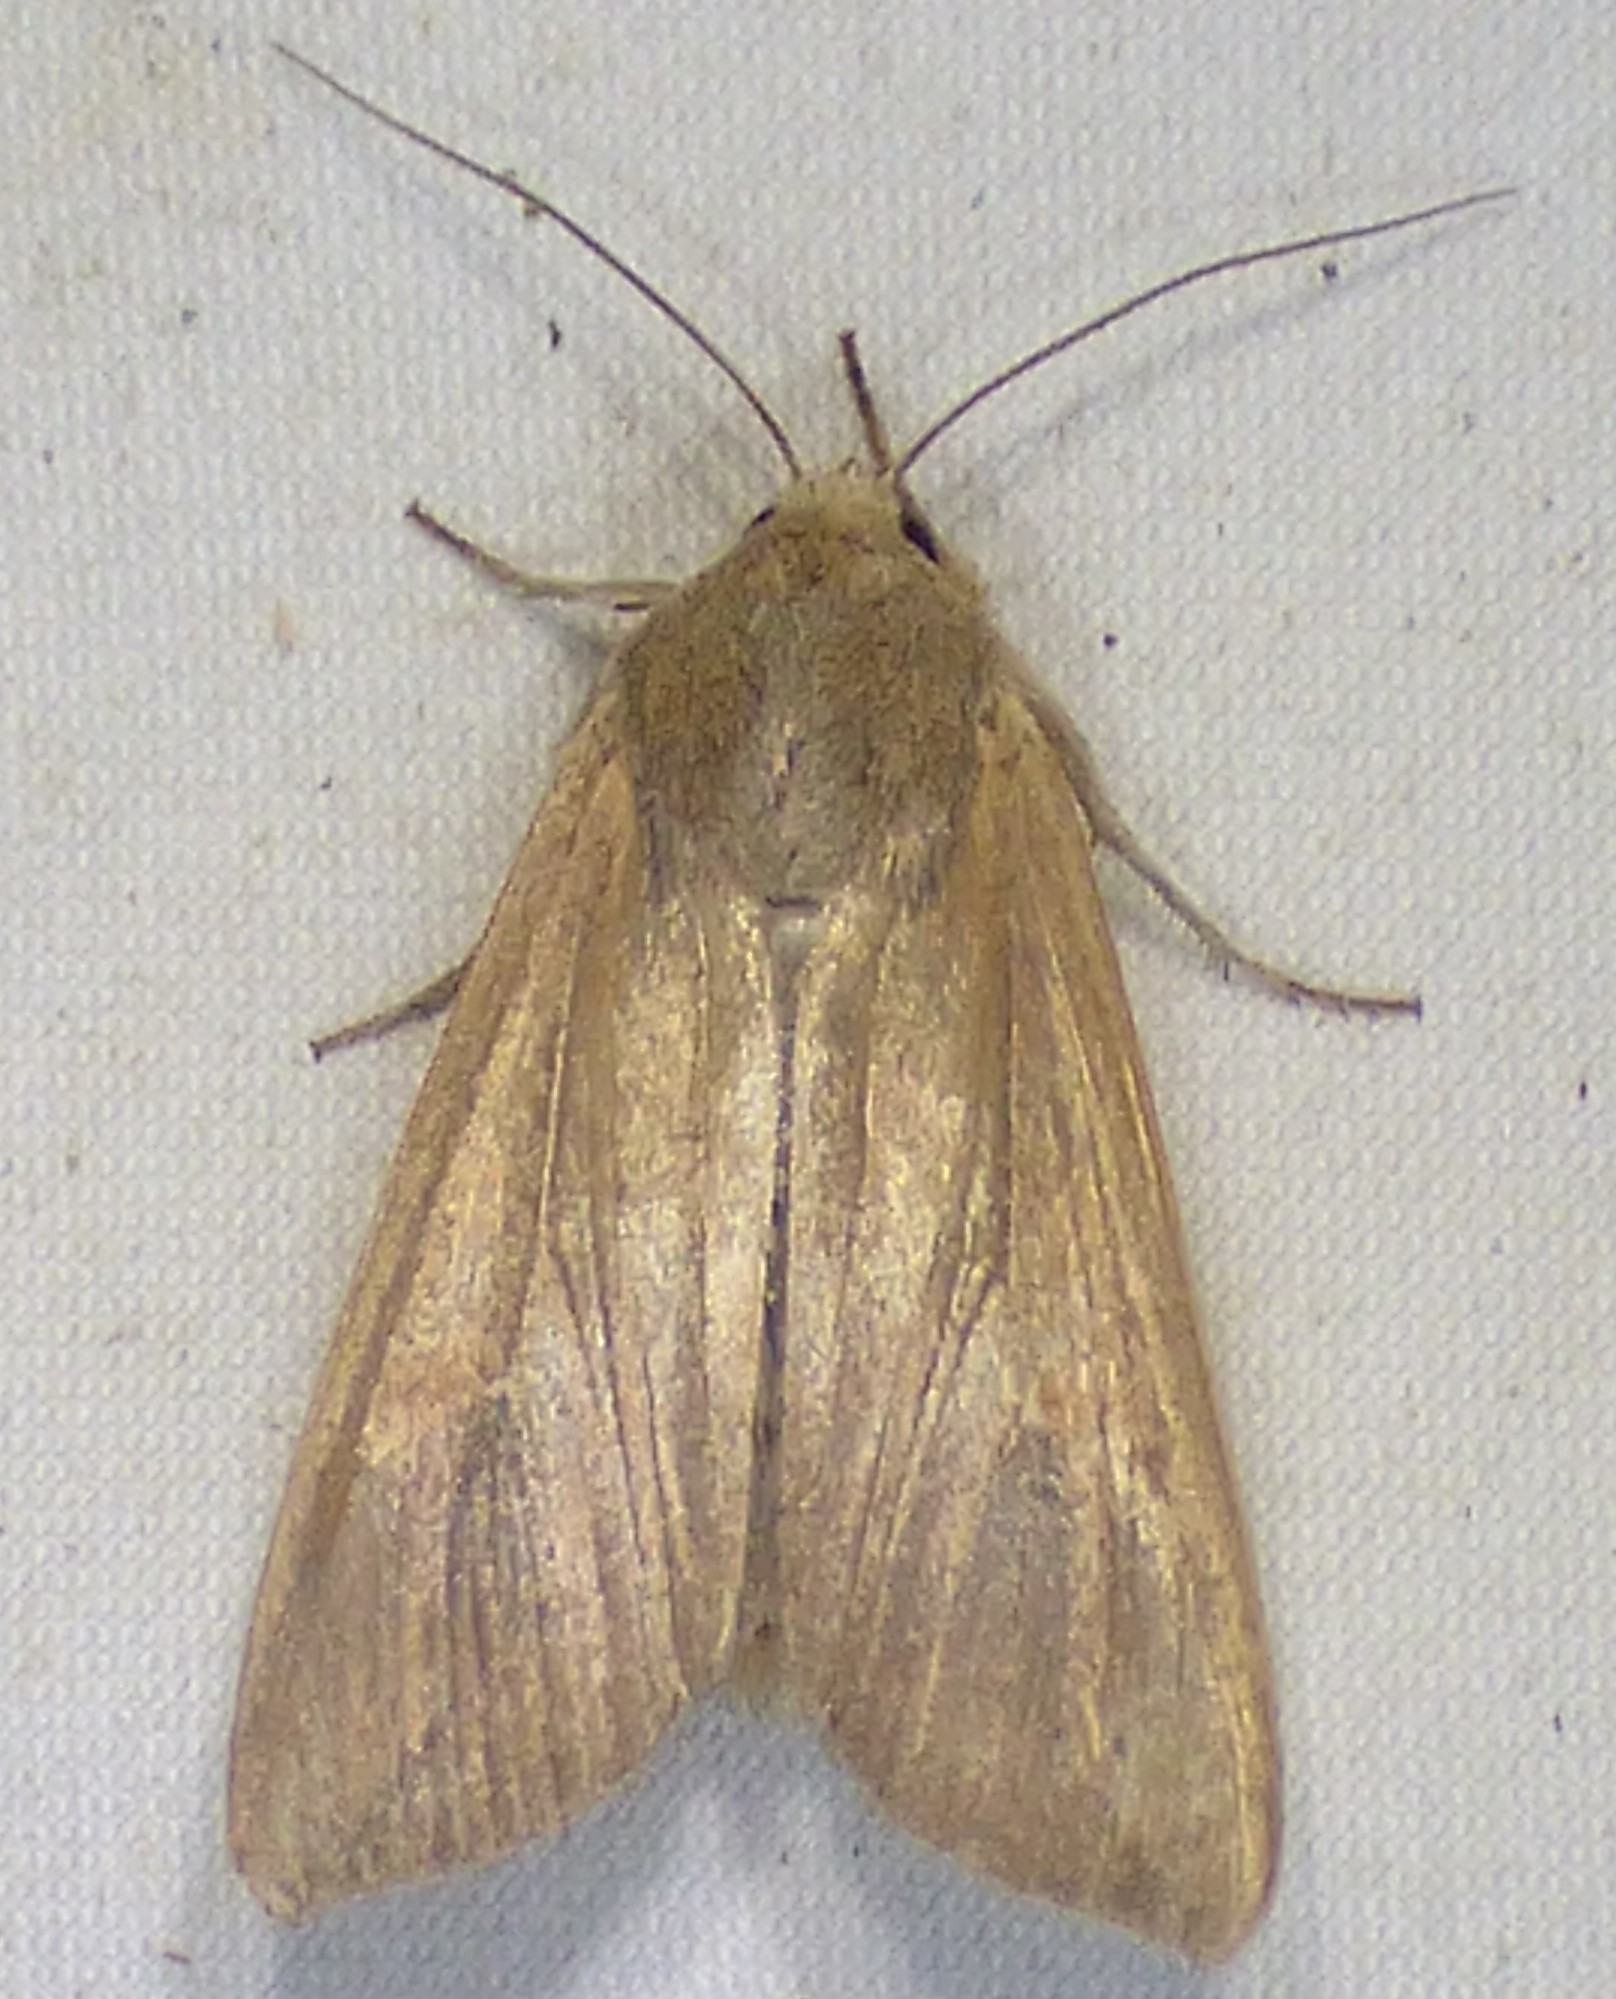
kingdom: Animalia
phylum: Arthropoda
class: Insecta
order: Lepidoptera
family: Noctuidae
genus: Mythimna
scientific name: Mythimna unipuncta
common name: White-speck
